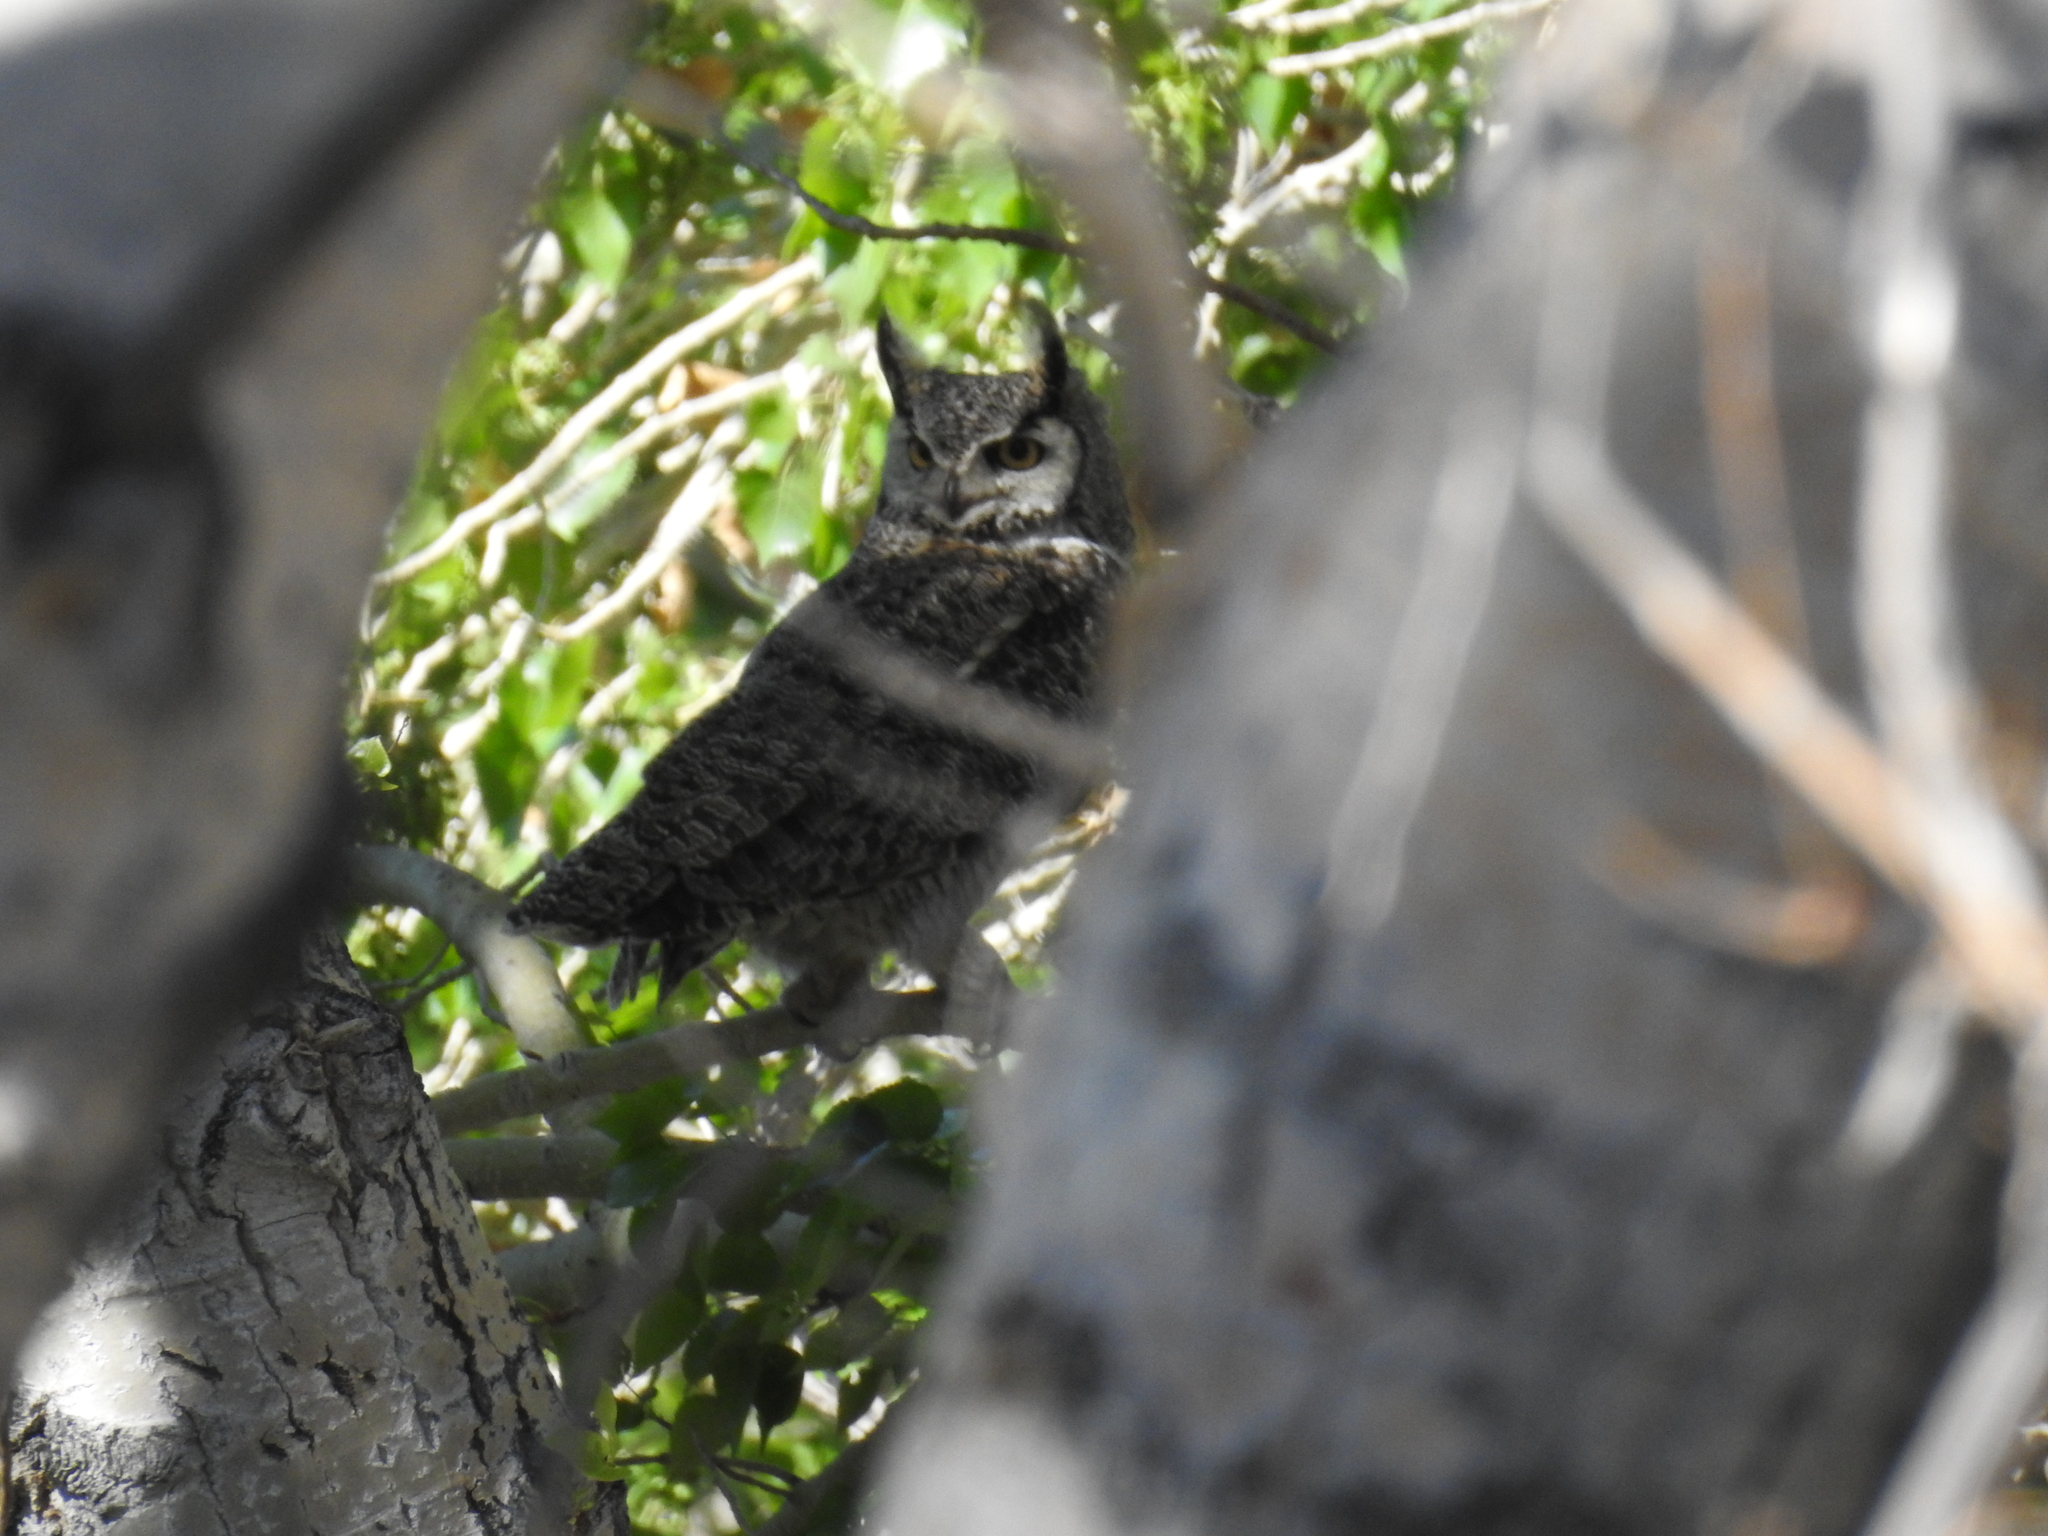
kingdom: Animalia
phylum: Chordata
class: Aves
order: Strigiformes
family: Strigidae
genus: Bubo
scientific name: Bubo virginianus
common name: Great horned owl
